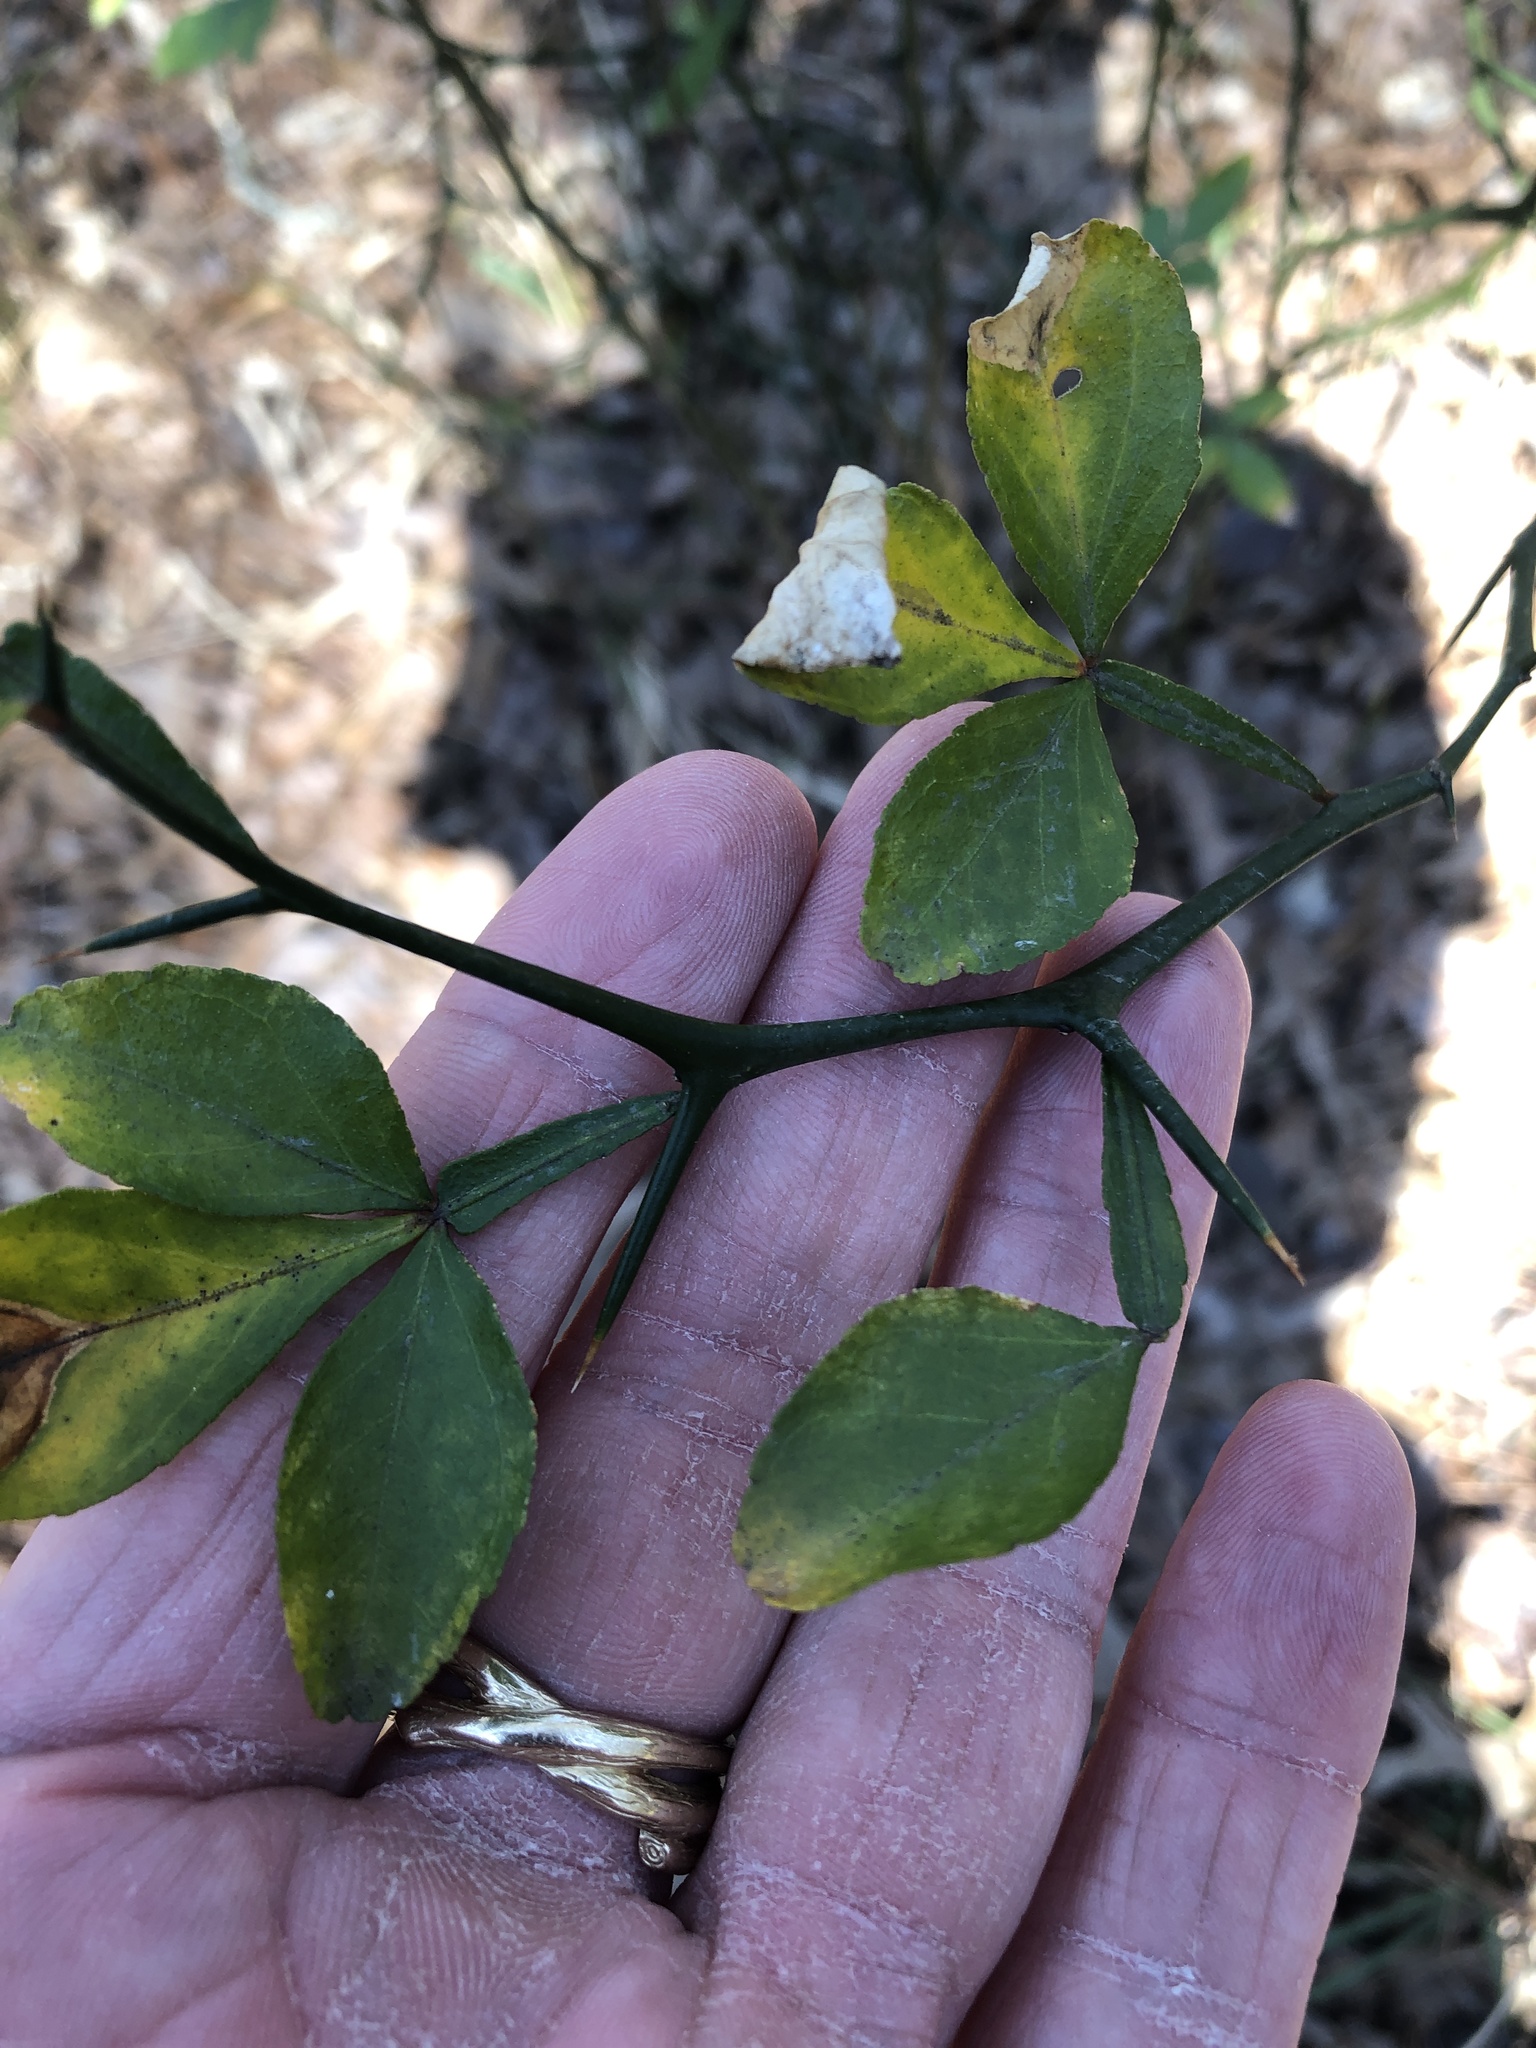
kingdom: Plantae
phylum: Tracheophyta
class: Magnoliopsida
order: Sapindales
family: Rutaceae
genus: Citrus
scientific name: Citrus trifoliata
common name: Japanese bitter-orange
